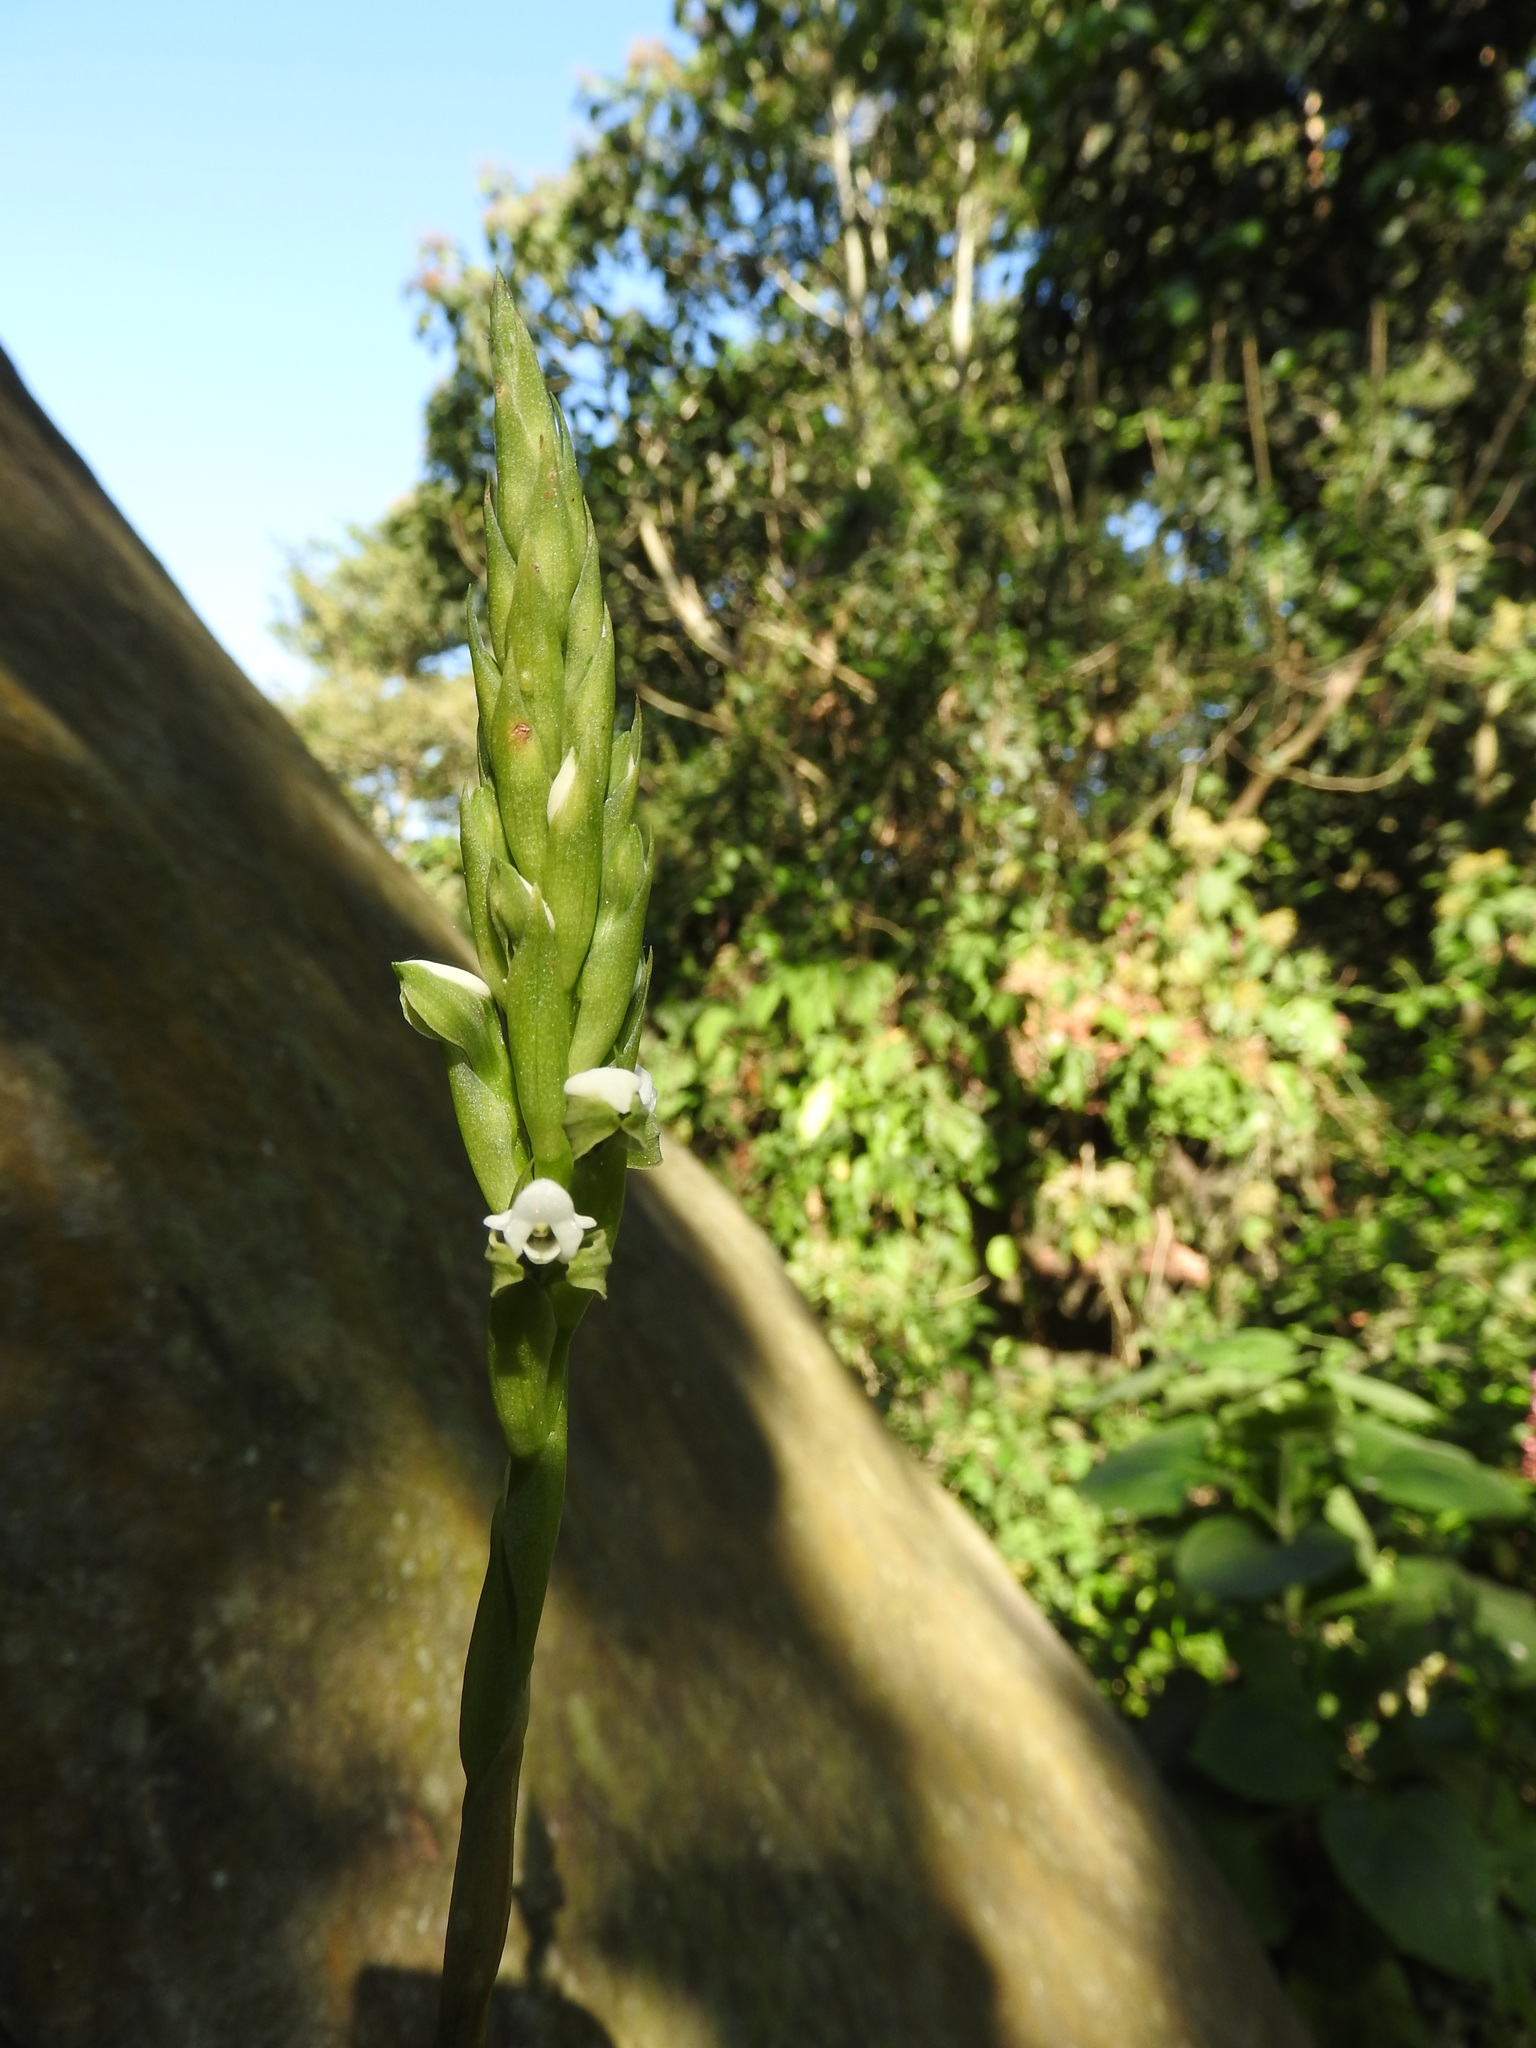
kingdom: Plantae
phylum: Tracheophyta
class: Liliopsida
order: Asparagales
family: Orchidaceae
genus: Aulosepalum
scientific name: Aulosepalum hemichrea
